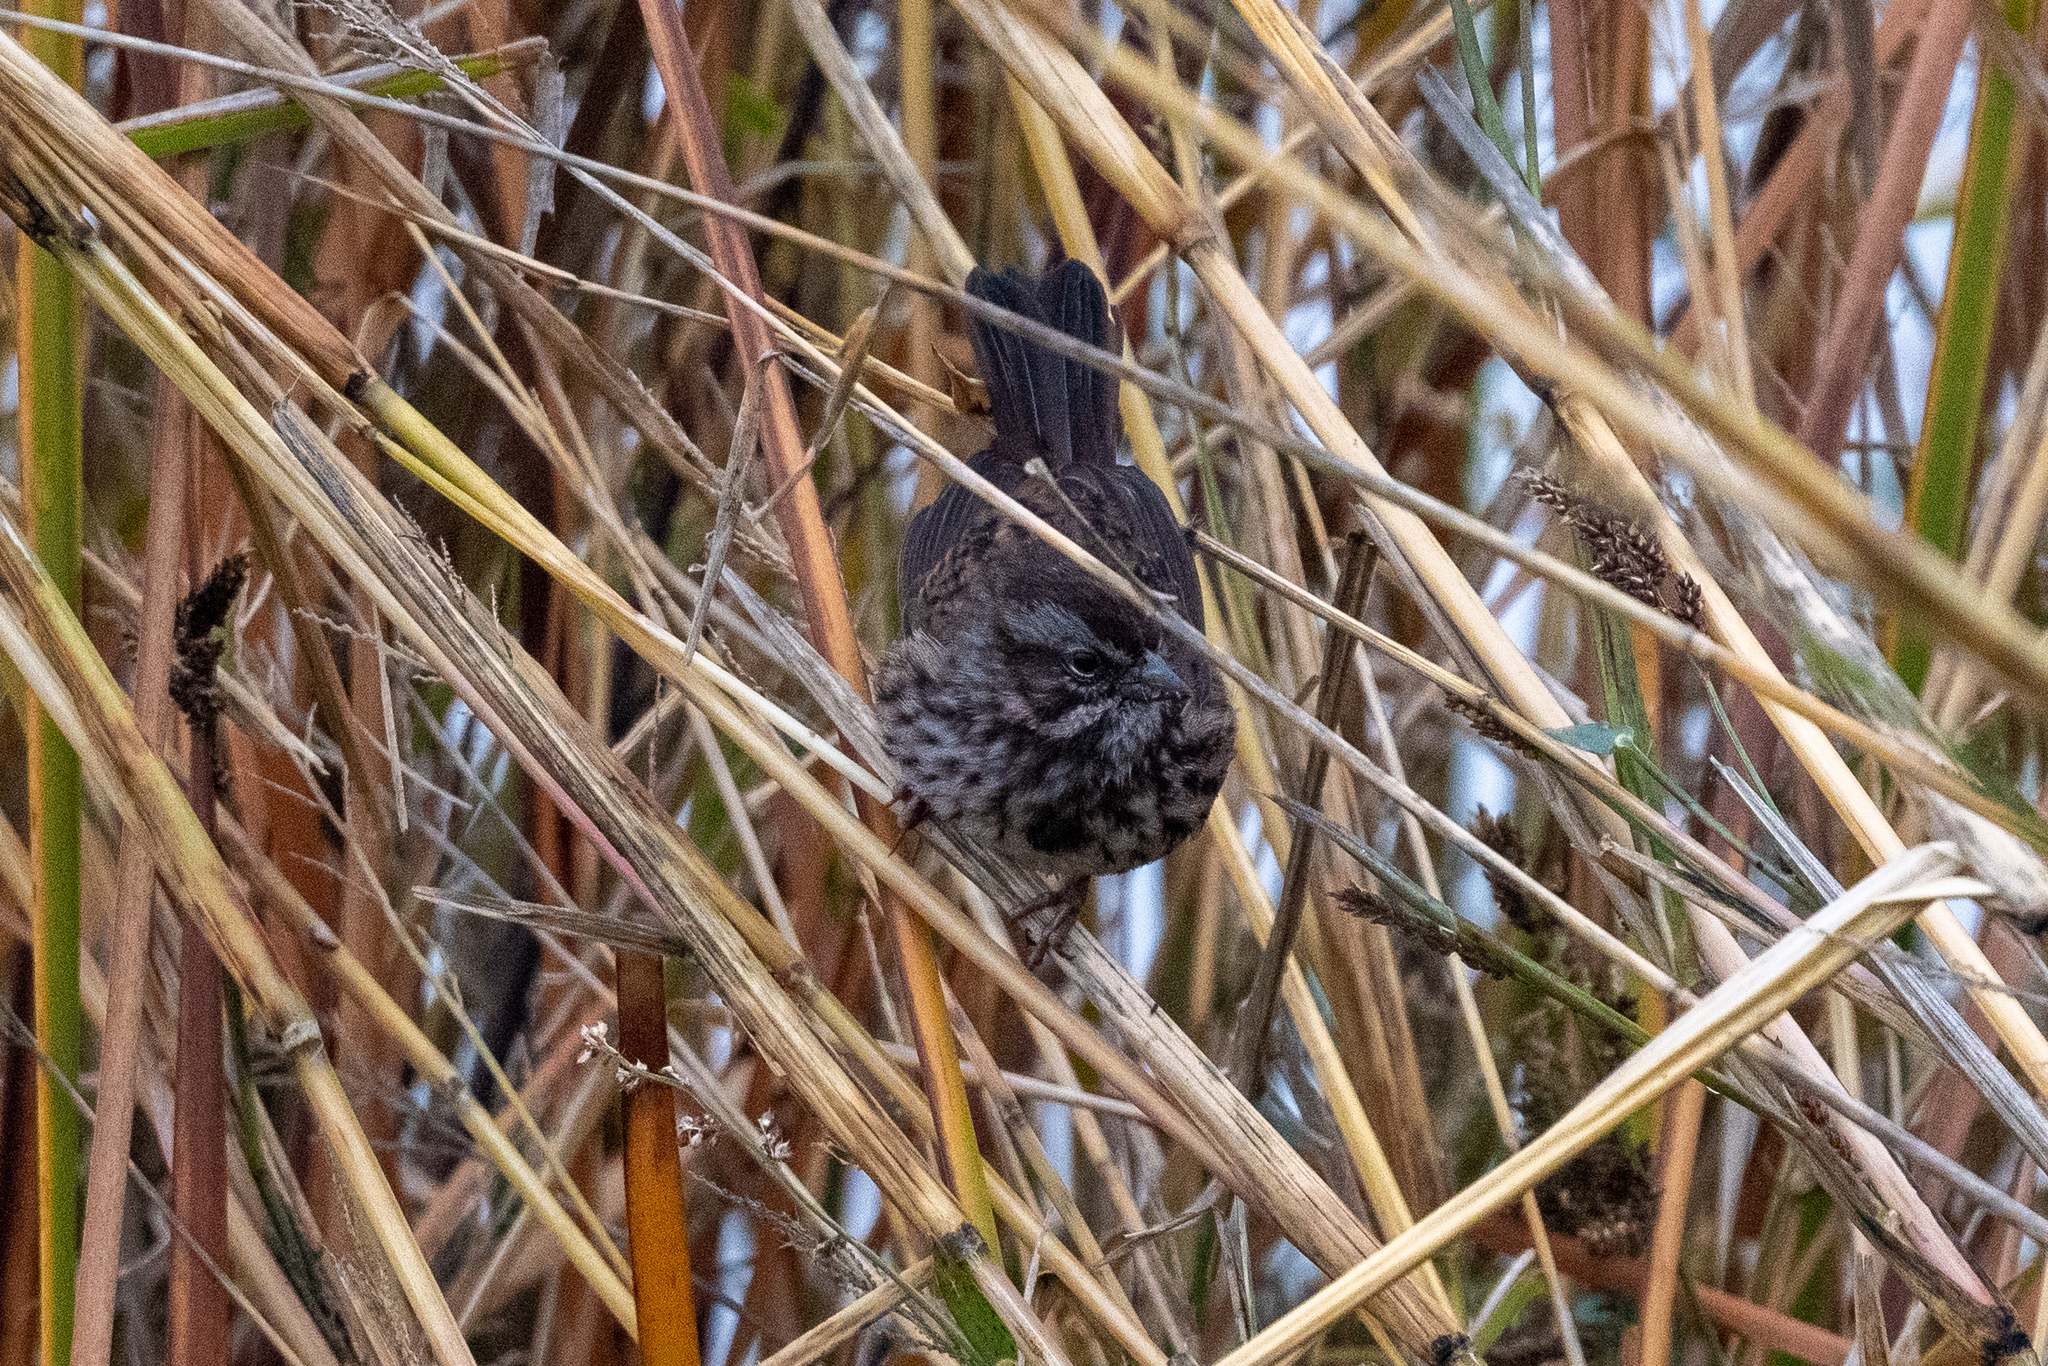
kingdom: Animalia
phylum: Chordata
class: Aves
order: Passeriformes
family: Passerellidae
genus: Melospiza
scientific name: Melospiza melodia
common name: Song sparrow
